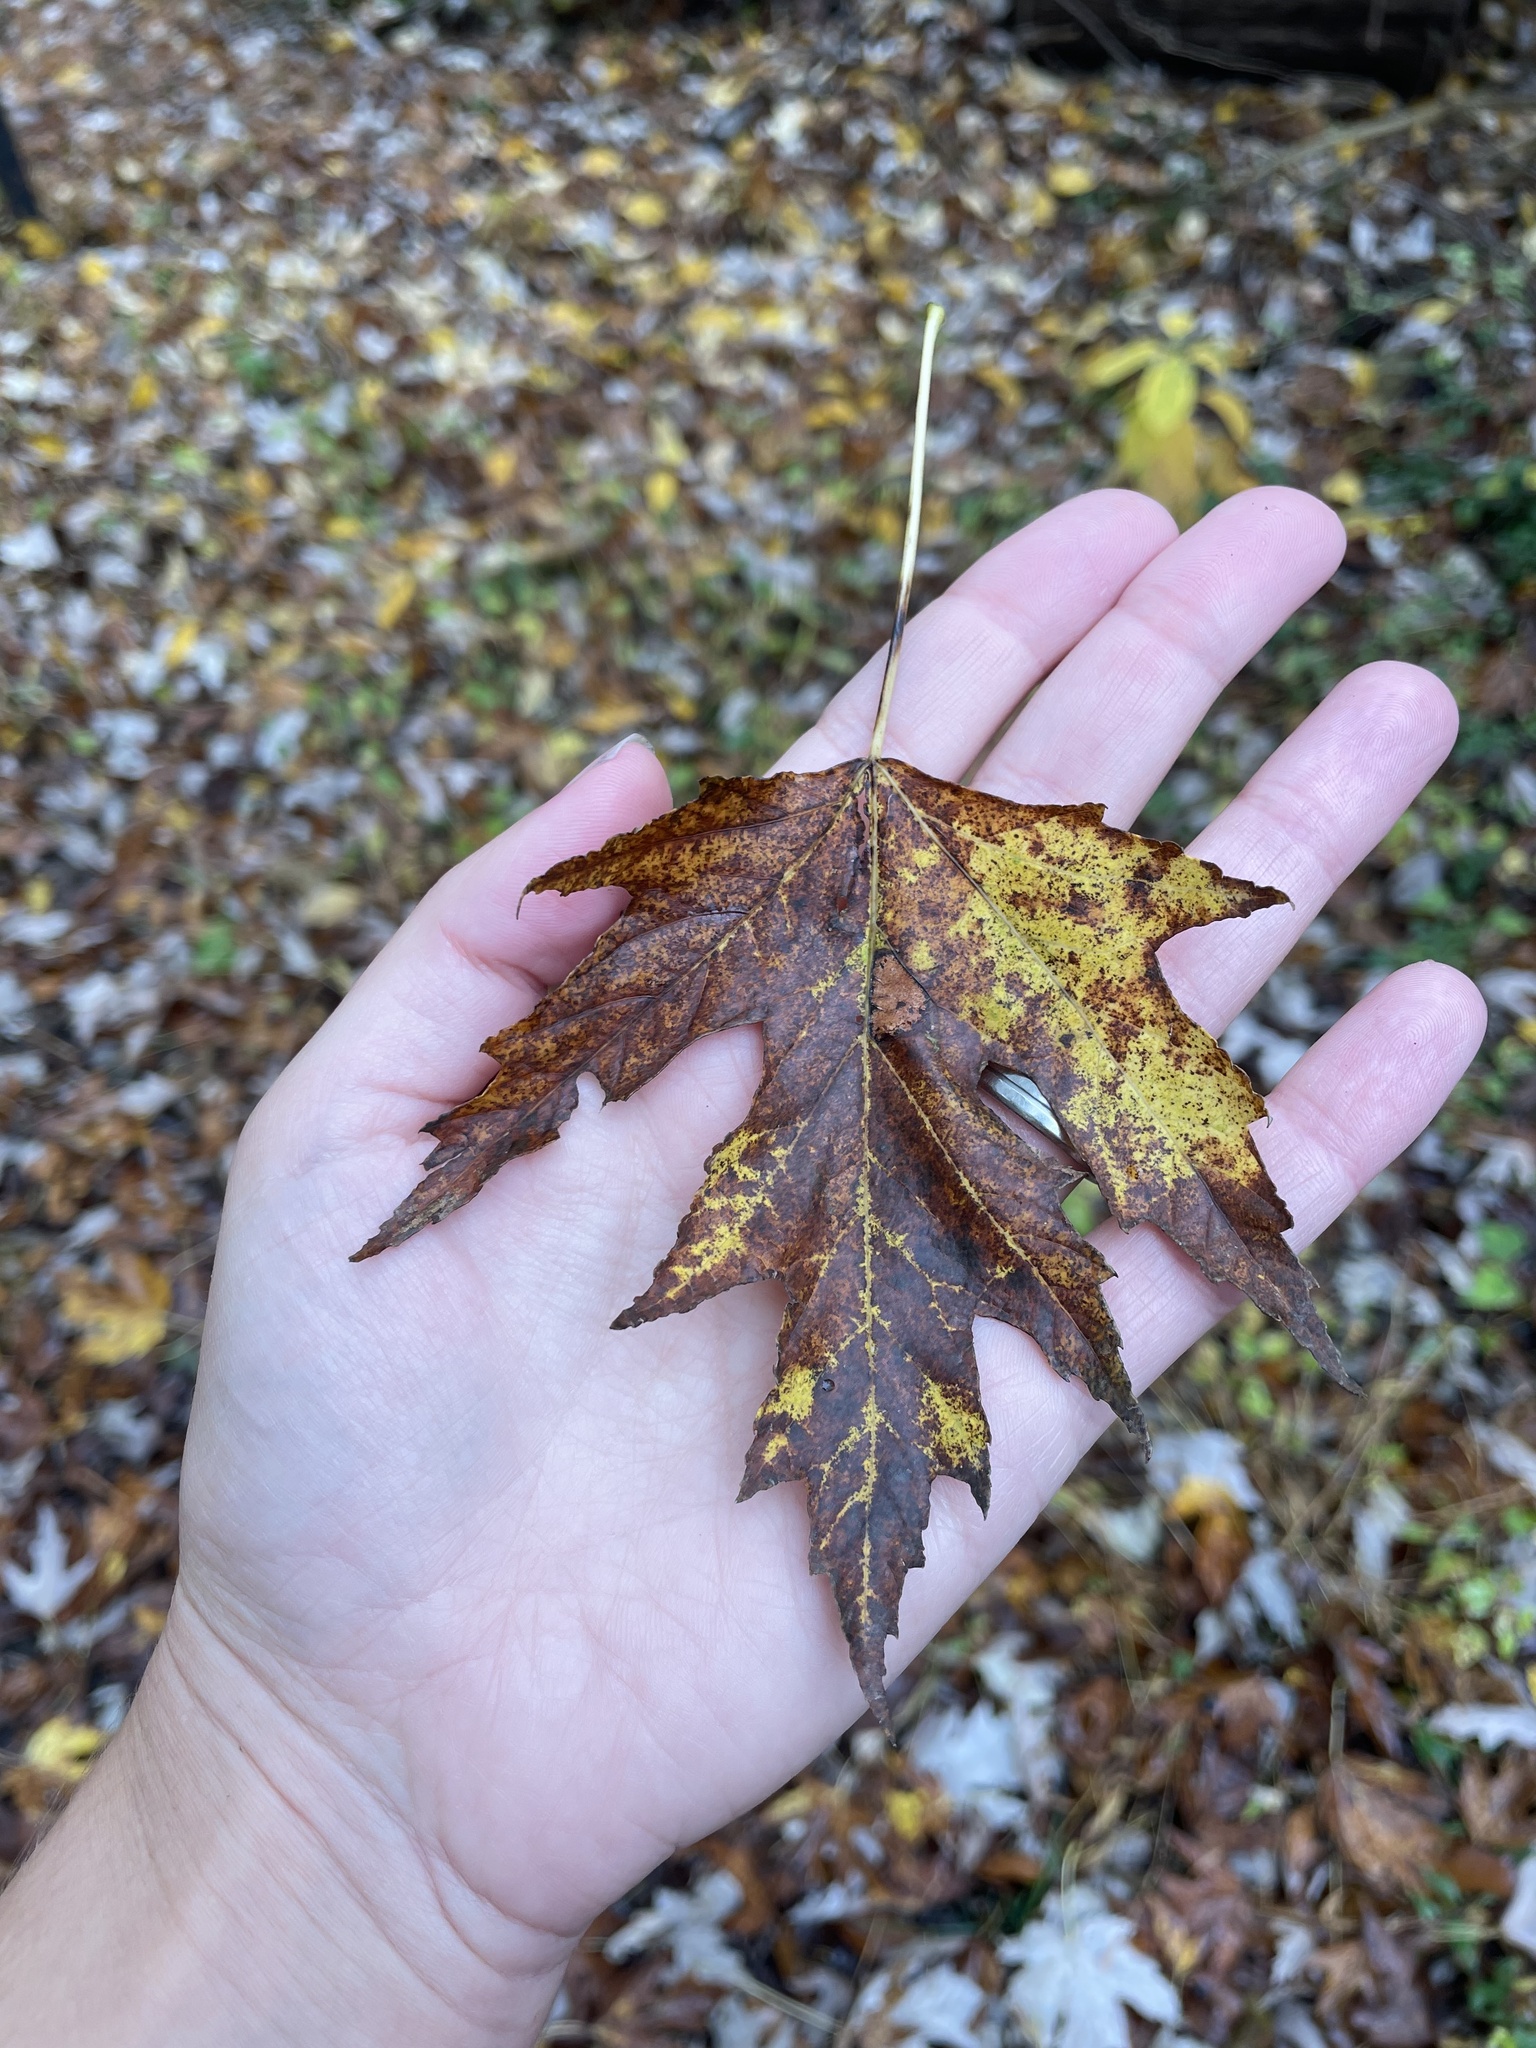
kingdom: Plantae
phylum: Tracheophyta
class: Magnoliopsida
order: Sapindales
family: Sapindaceae
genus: Acer
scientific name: Acer saccharinum
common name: Silver maple
